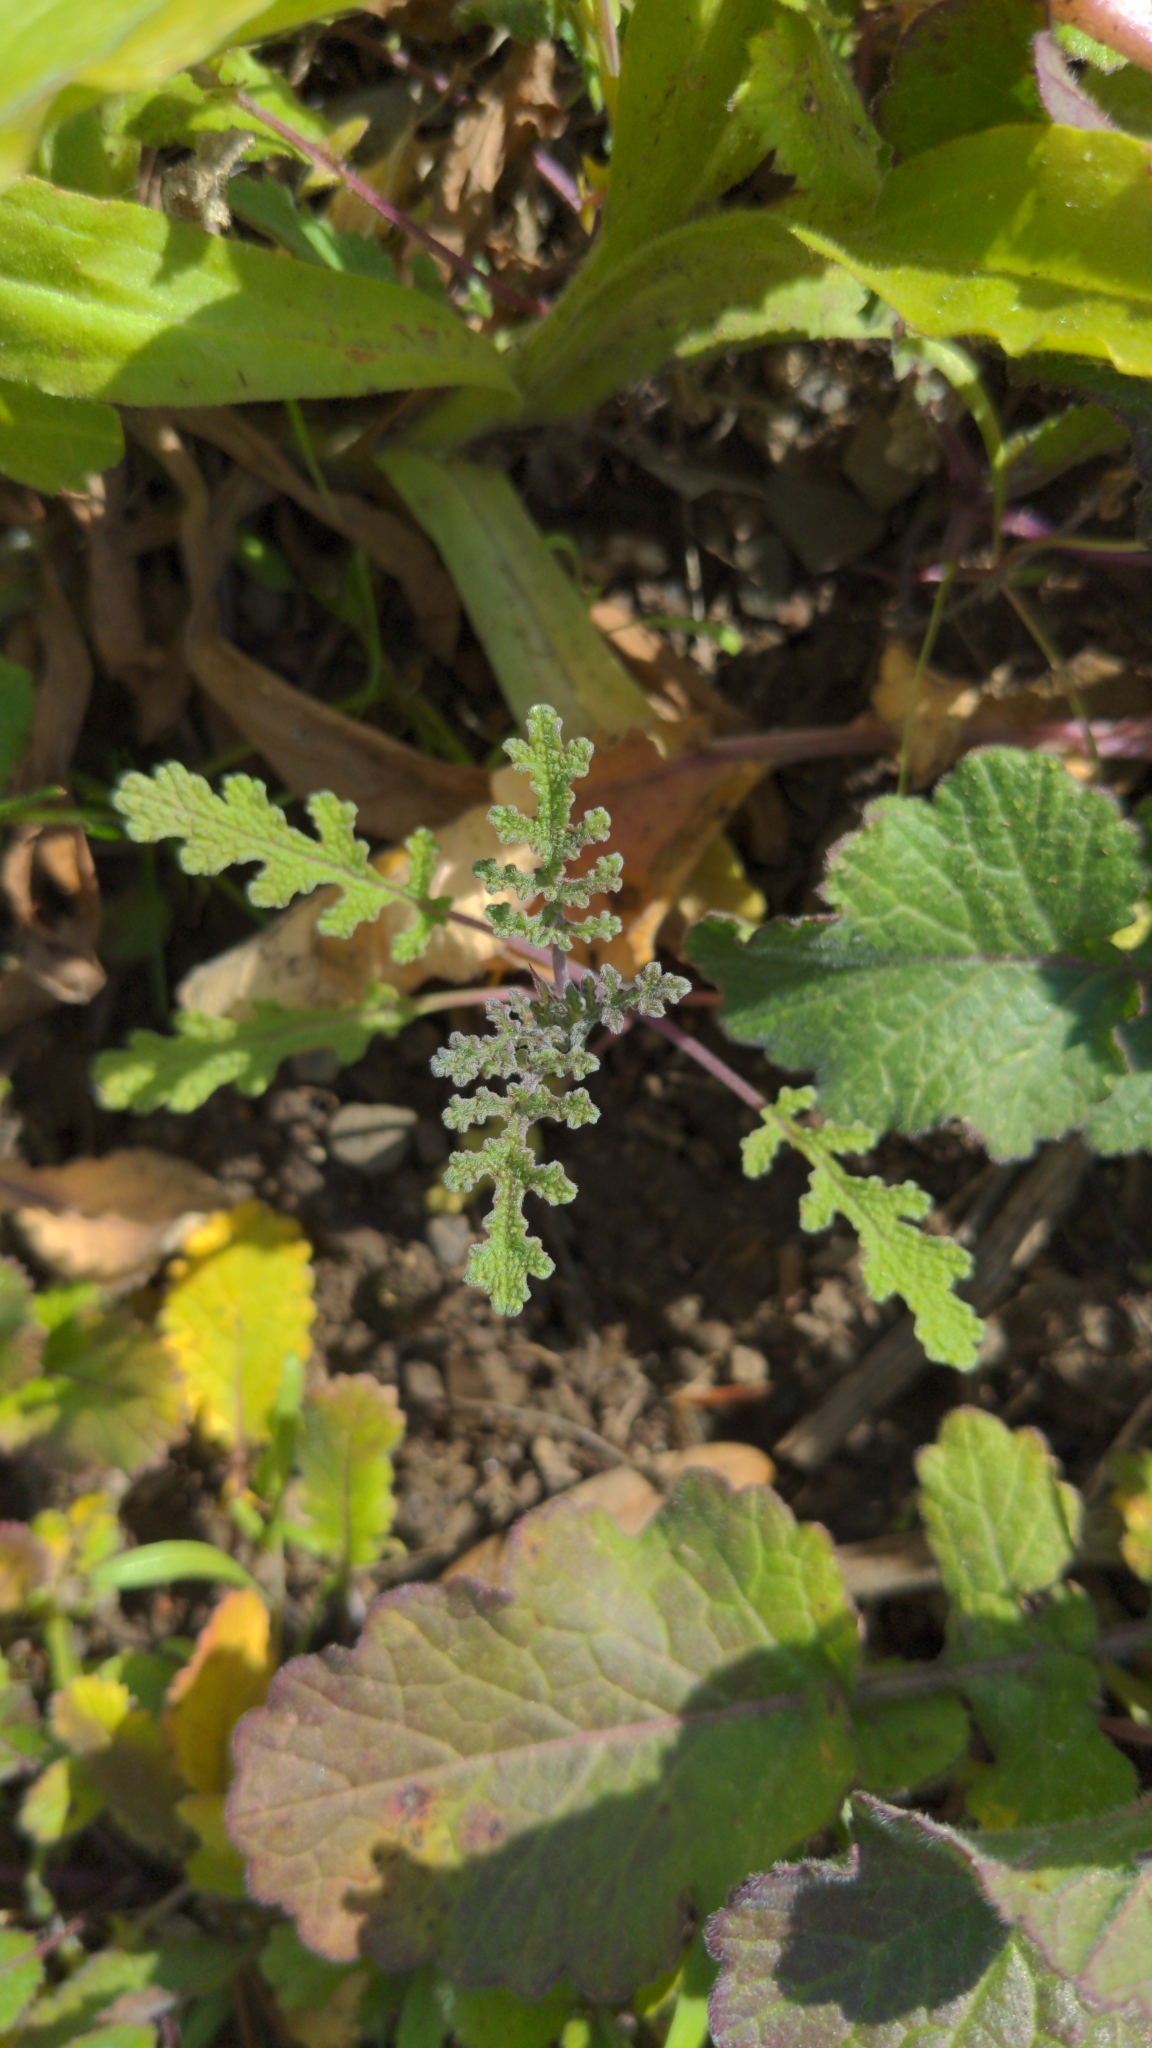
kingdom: Plantae
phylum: Tracheophyta
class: Magnoliopsida
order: Lamiales
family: Lamiaceae
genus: Salvia
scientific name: Salvia columbariae
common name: Chia
